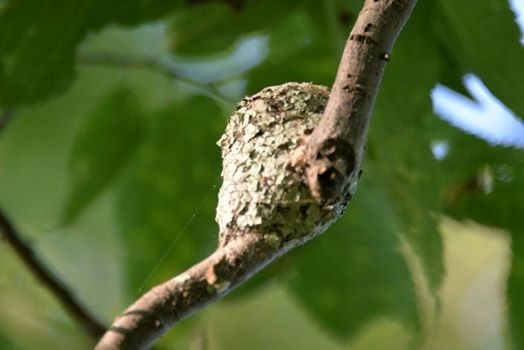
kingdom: Animalia
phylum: Chordata
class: Aves
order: Apodiformes
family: Trochilidae
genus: Archilochus
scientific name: Archilochus colubris
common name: Ruby-throated hummingbird
